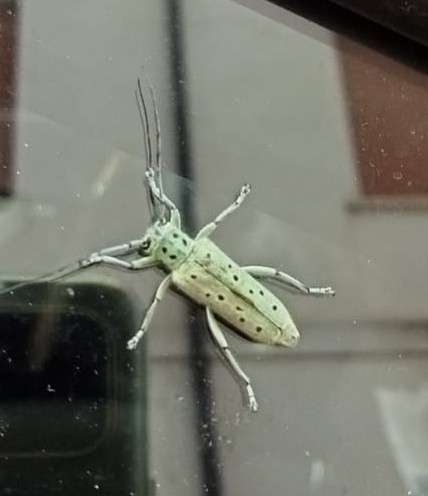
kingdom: Animalia
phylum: Arthropoda
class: Insecta
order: Coleoptera
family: Cerambycidae
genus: Saperda
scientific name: Saperda punctata
